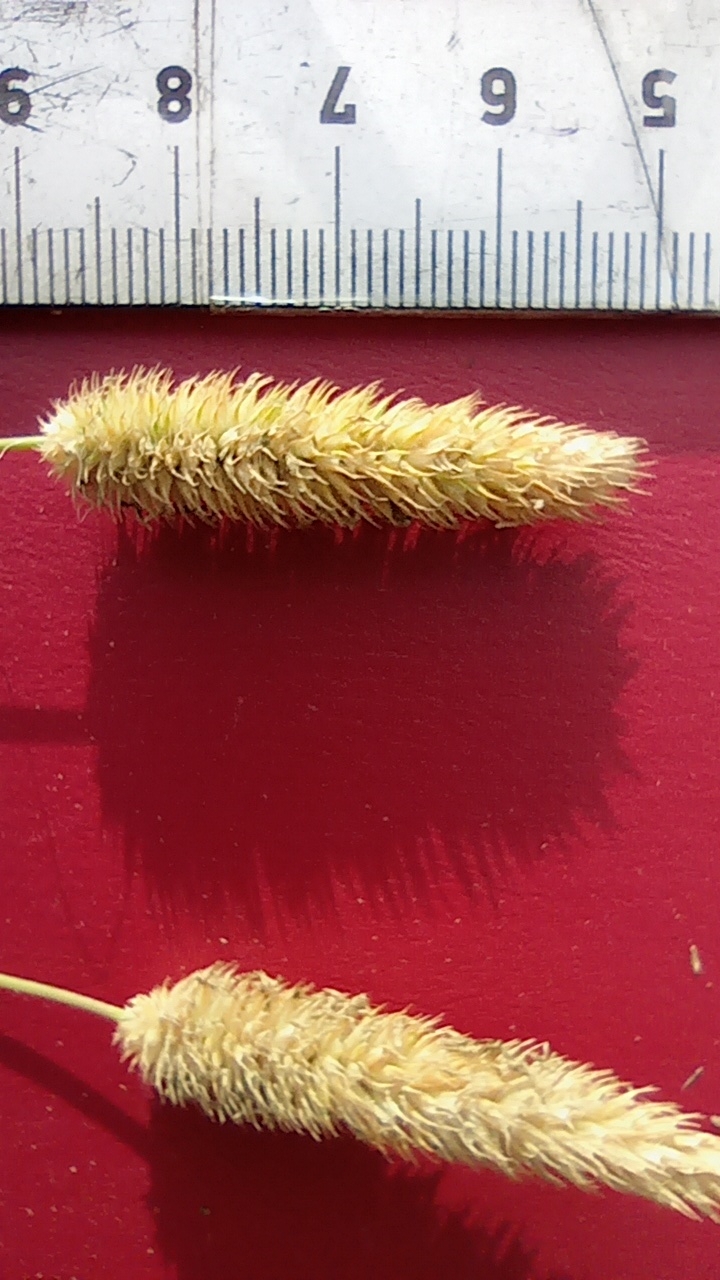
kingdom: Plantae
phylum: Tracheophyta
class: Liliopsida
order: Poales
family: Poaceae
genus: Phleum
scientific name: Phleum pratense
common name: Timothy grass
